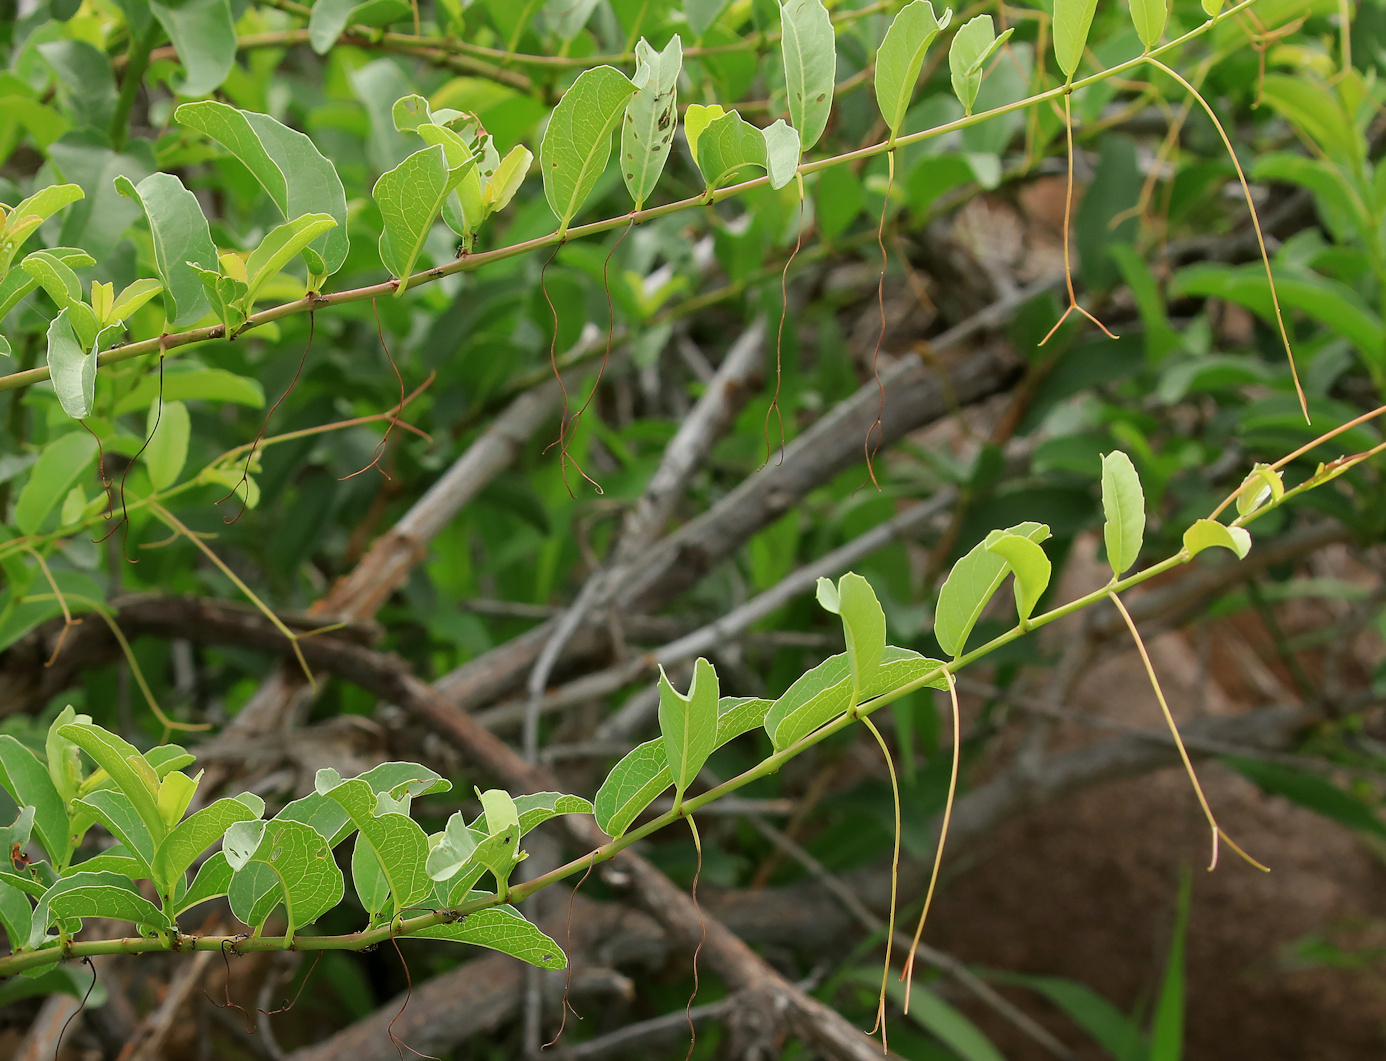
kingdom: Plantae
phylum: Tracheophyta
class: Magnoliopsida
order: Vitales
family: Vitaceae
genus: Cissus
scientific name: Cissus cornifolia
